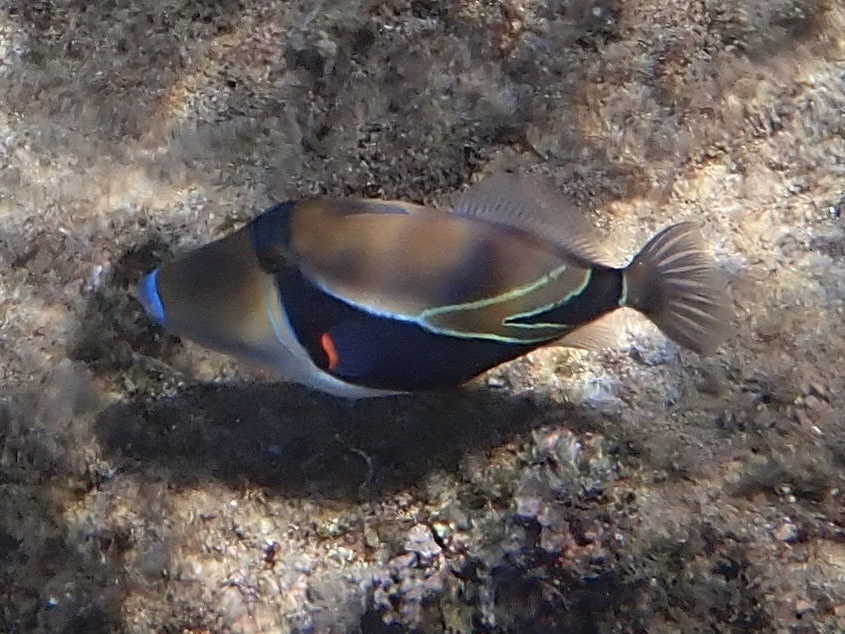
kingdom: Animalia
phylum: Chordata
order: Tetraodontiformes
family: Balistidae
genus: Rhinecanthus
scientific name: Rhinecanthus rectangulus
